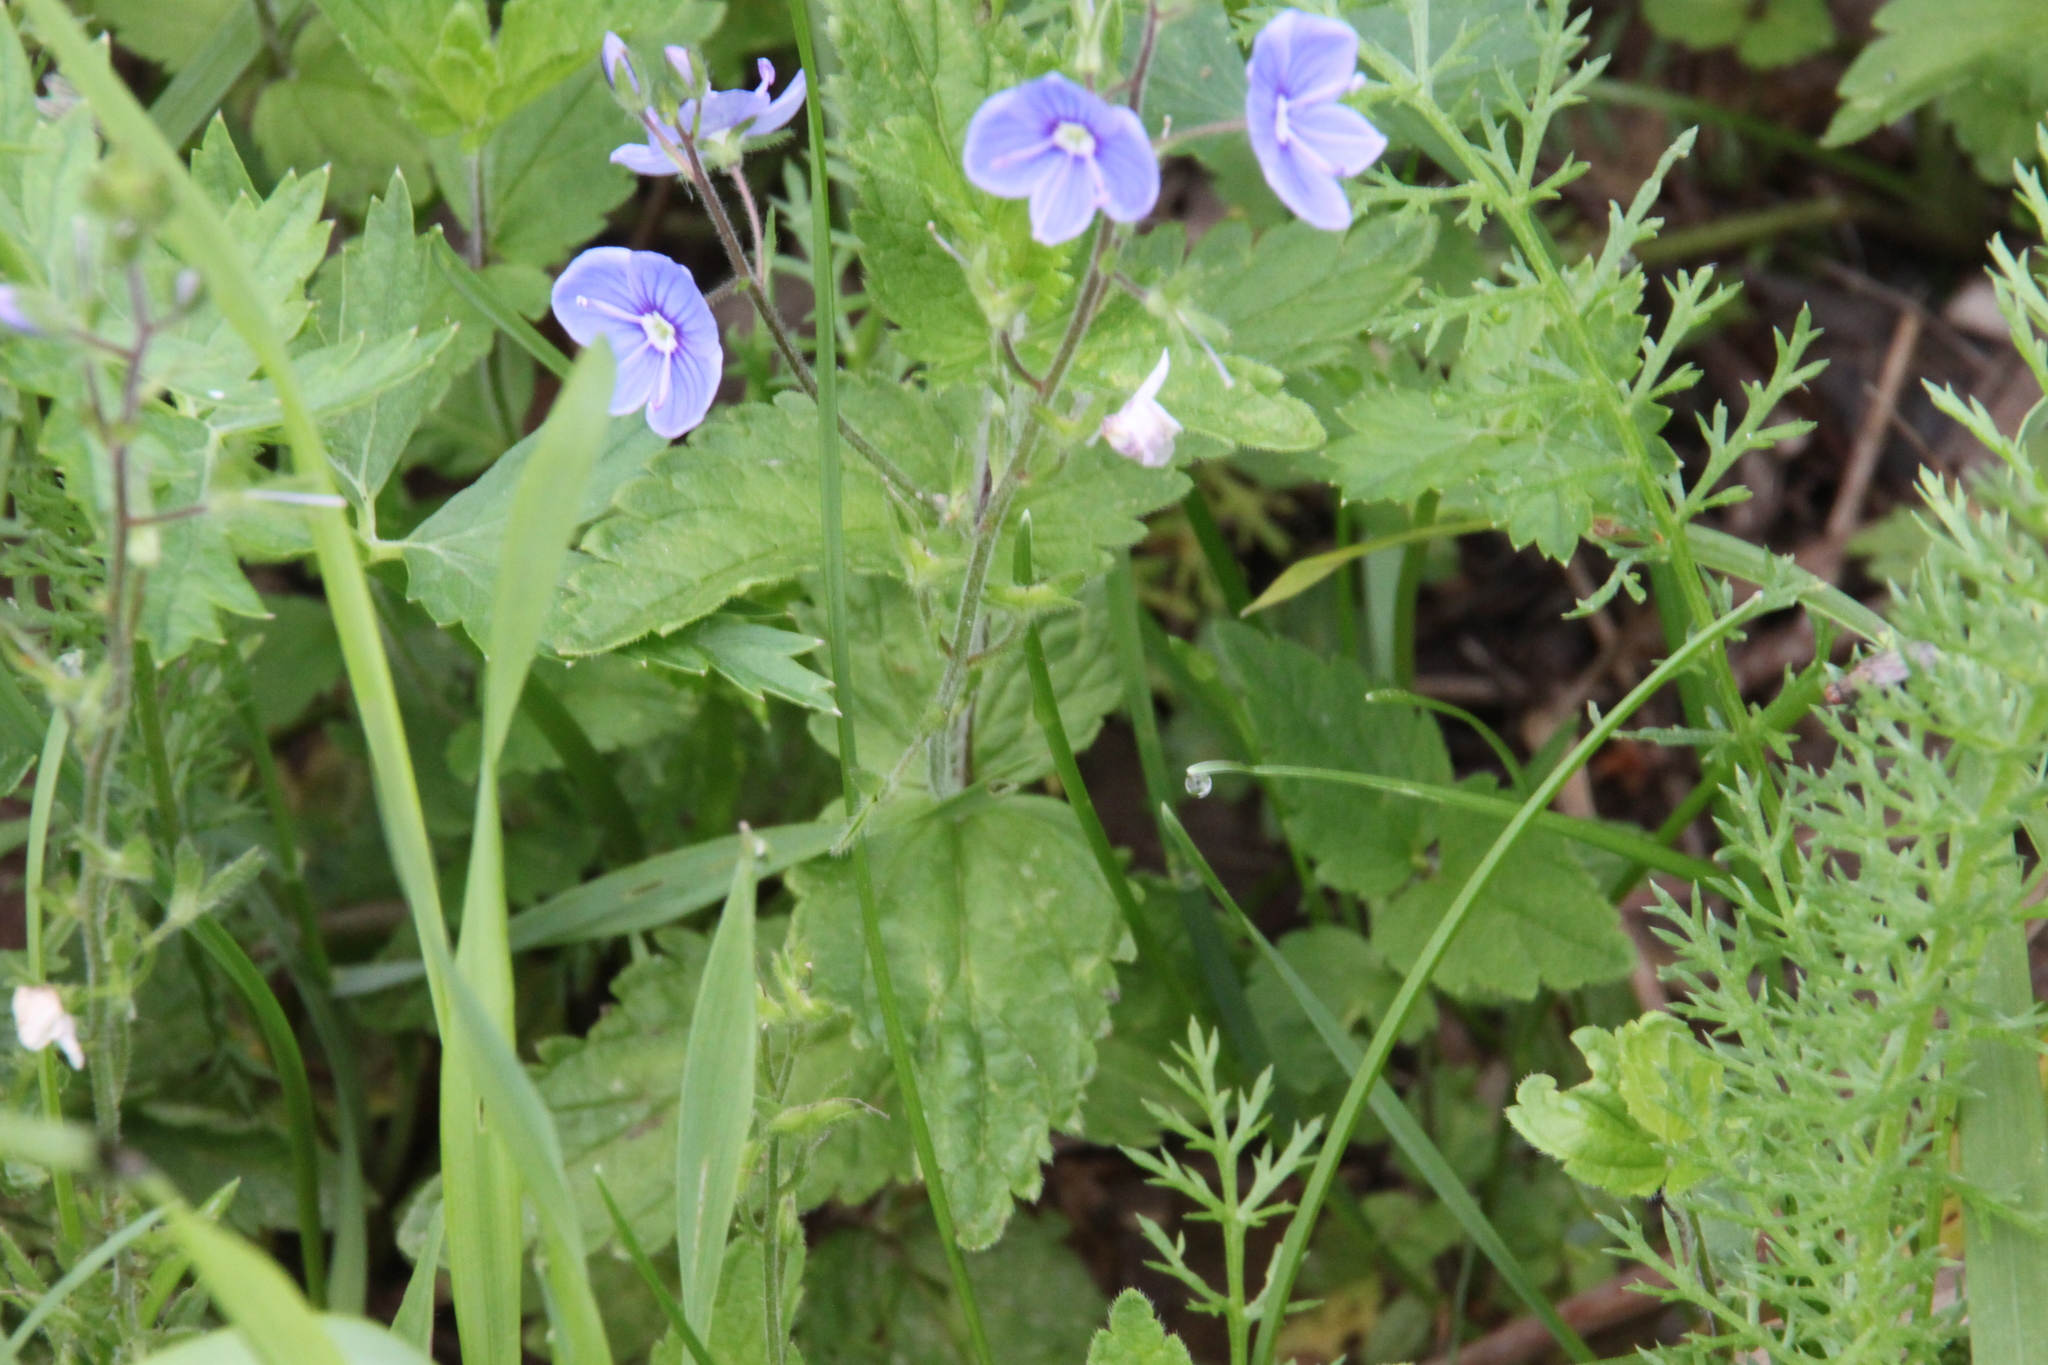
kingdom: Plantae
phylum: Tracheophyta
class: Magnoliopsida
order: Lamiales
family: Plantaginaceae
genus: Veronica
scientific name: Veronica chamaedrys
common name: Germander speedwell
